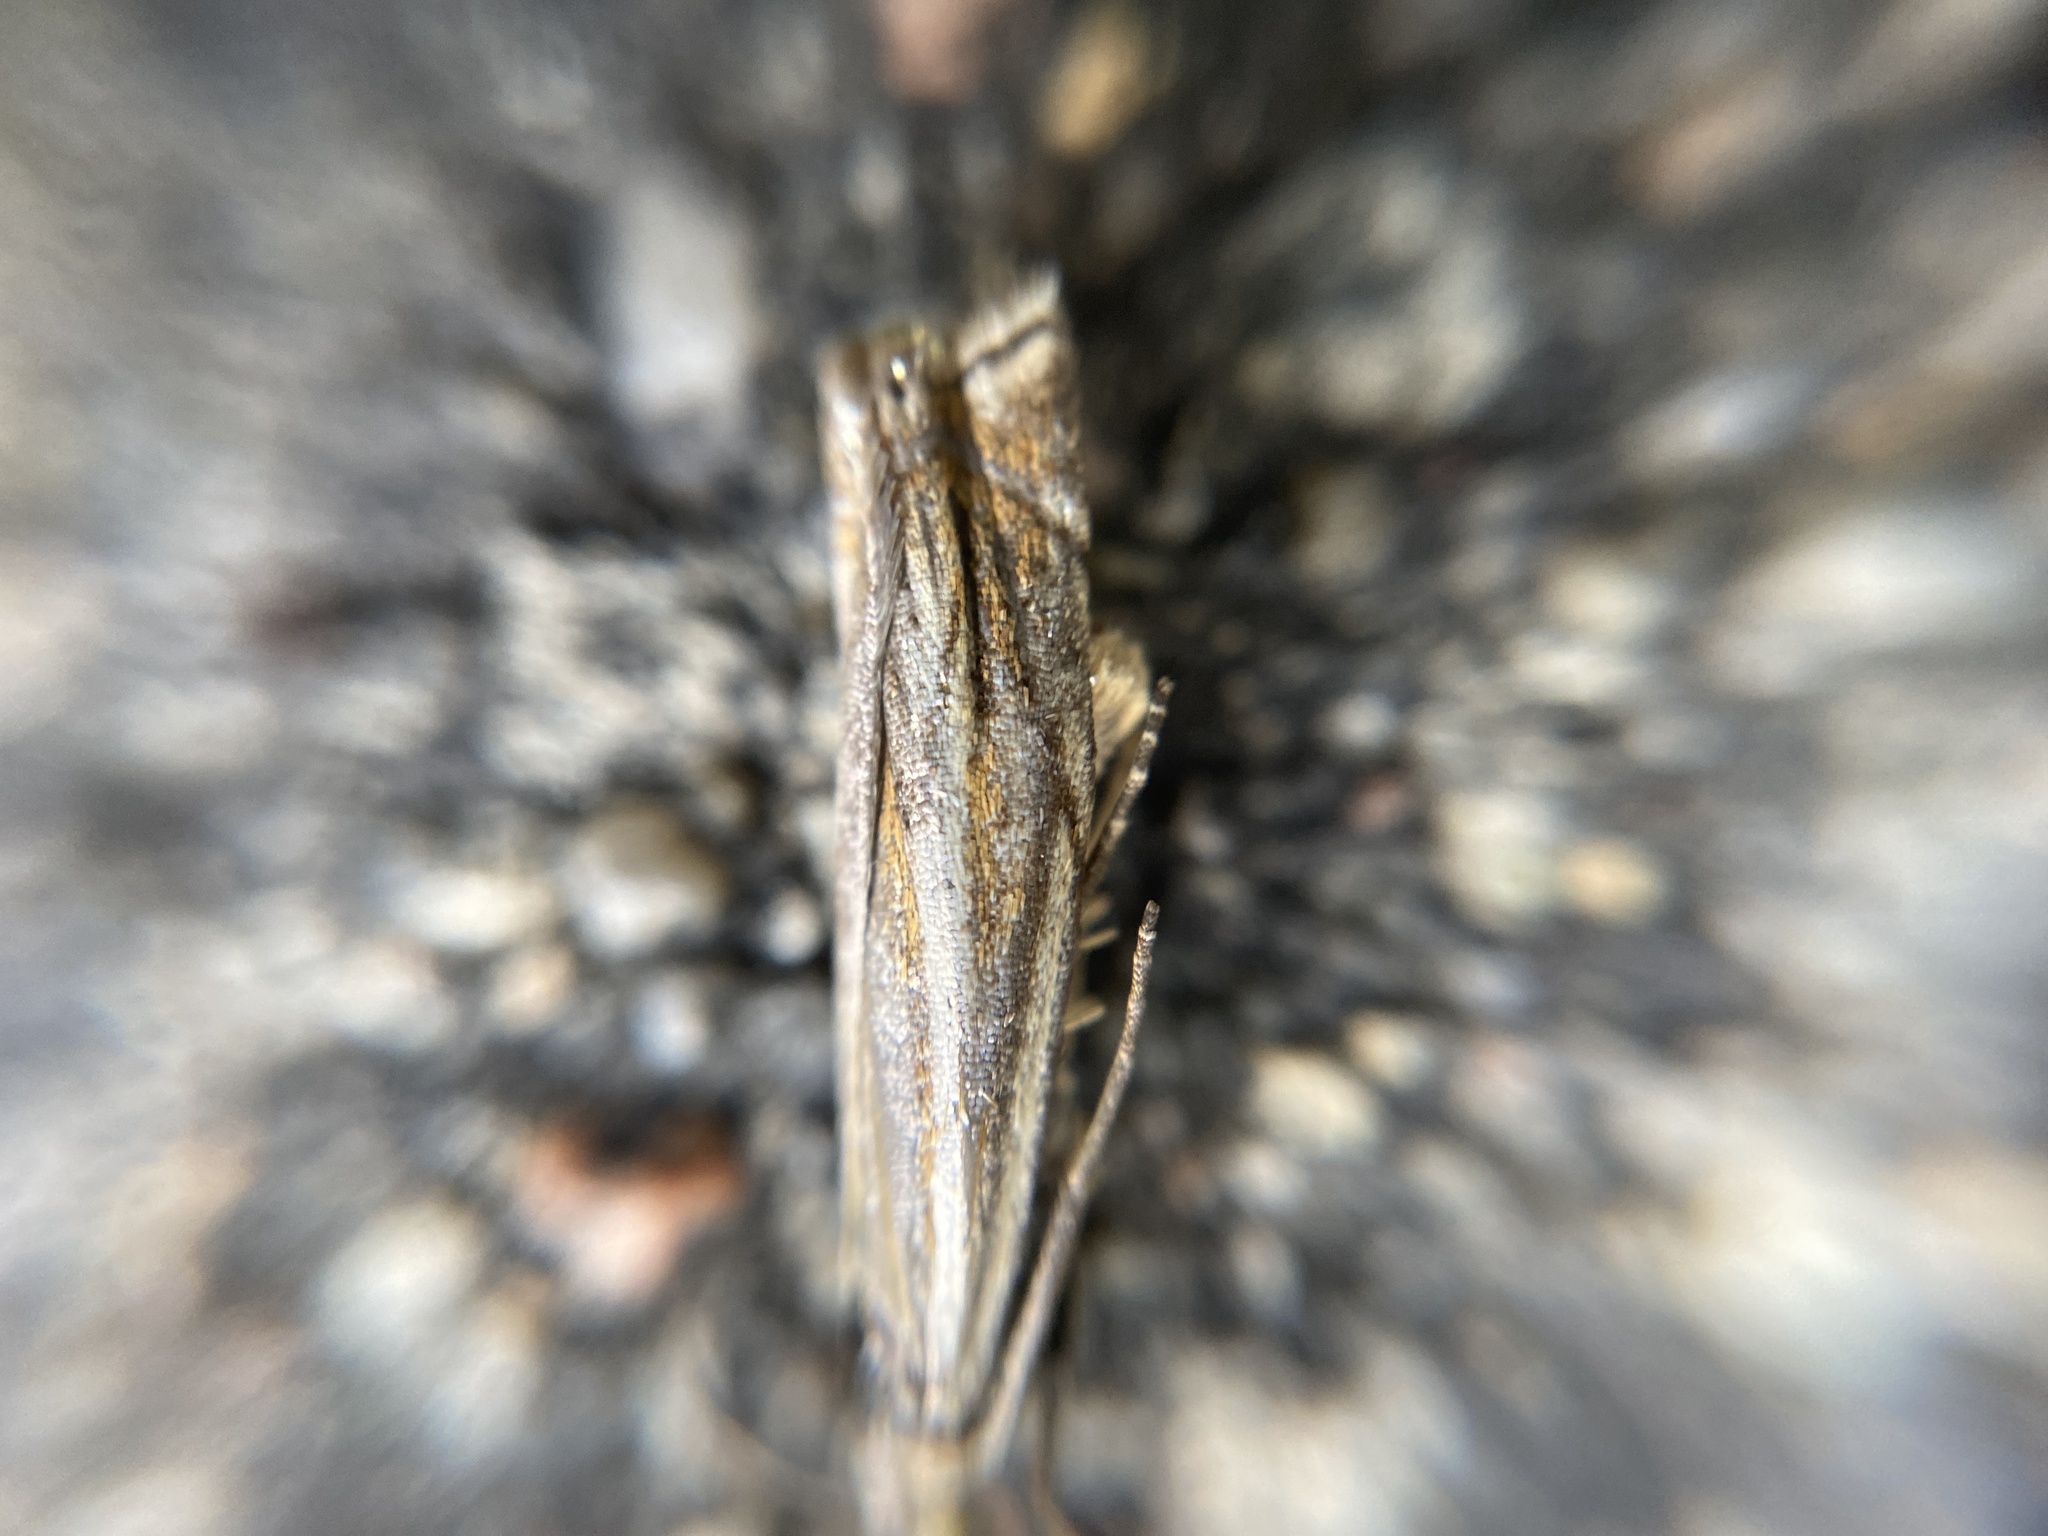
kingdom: Animalia
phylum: Arthropoda
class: Insecta
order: Lepidoptera
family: Crambidae
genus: Crambus
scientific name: Crambus nemorella
